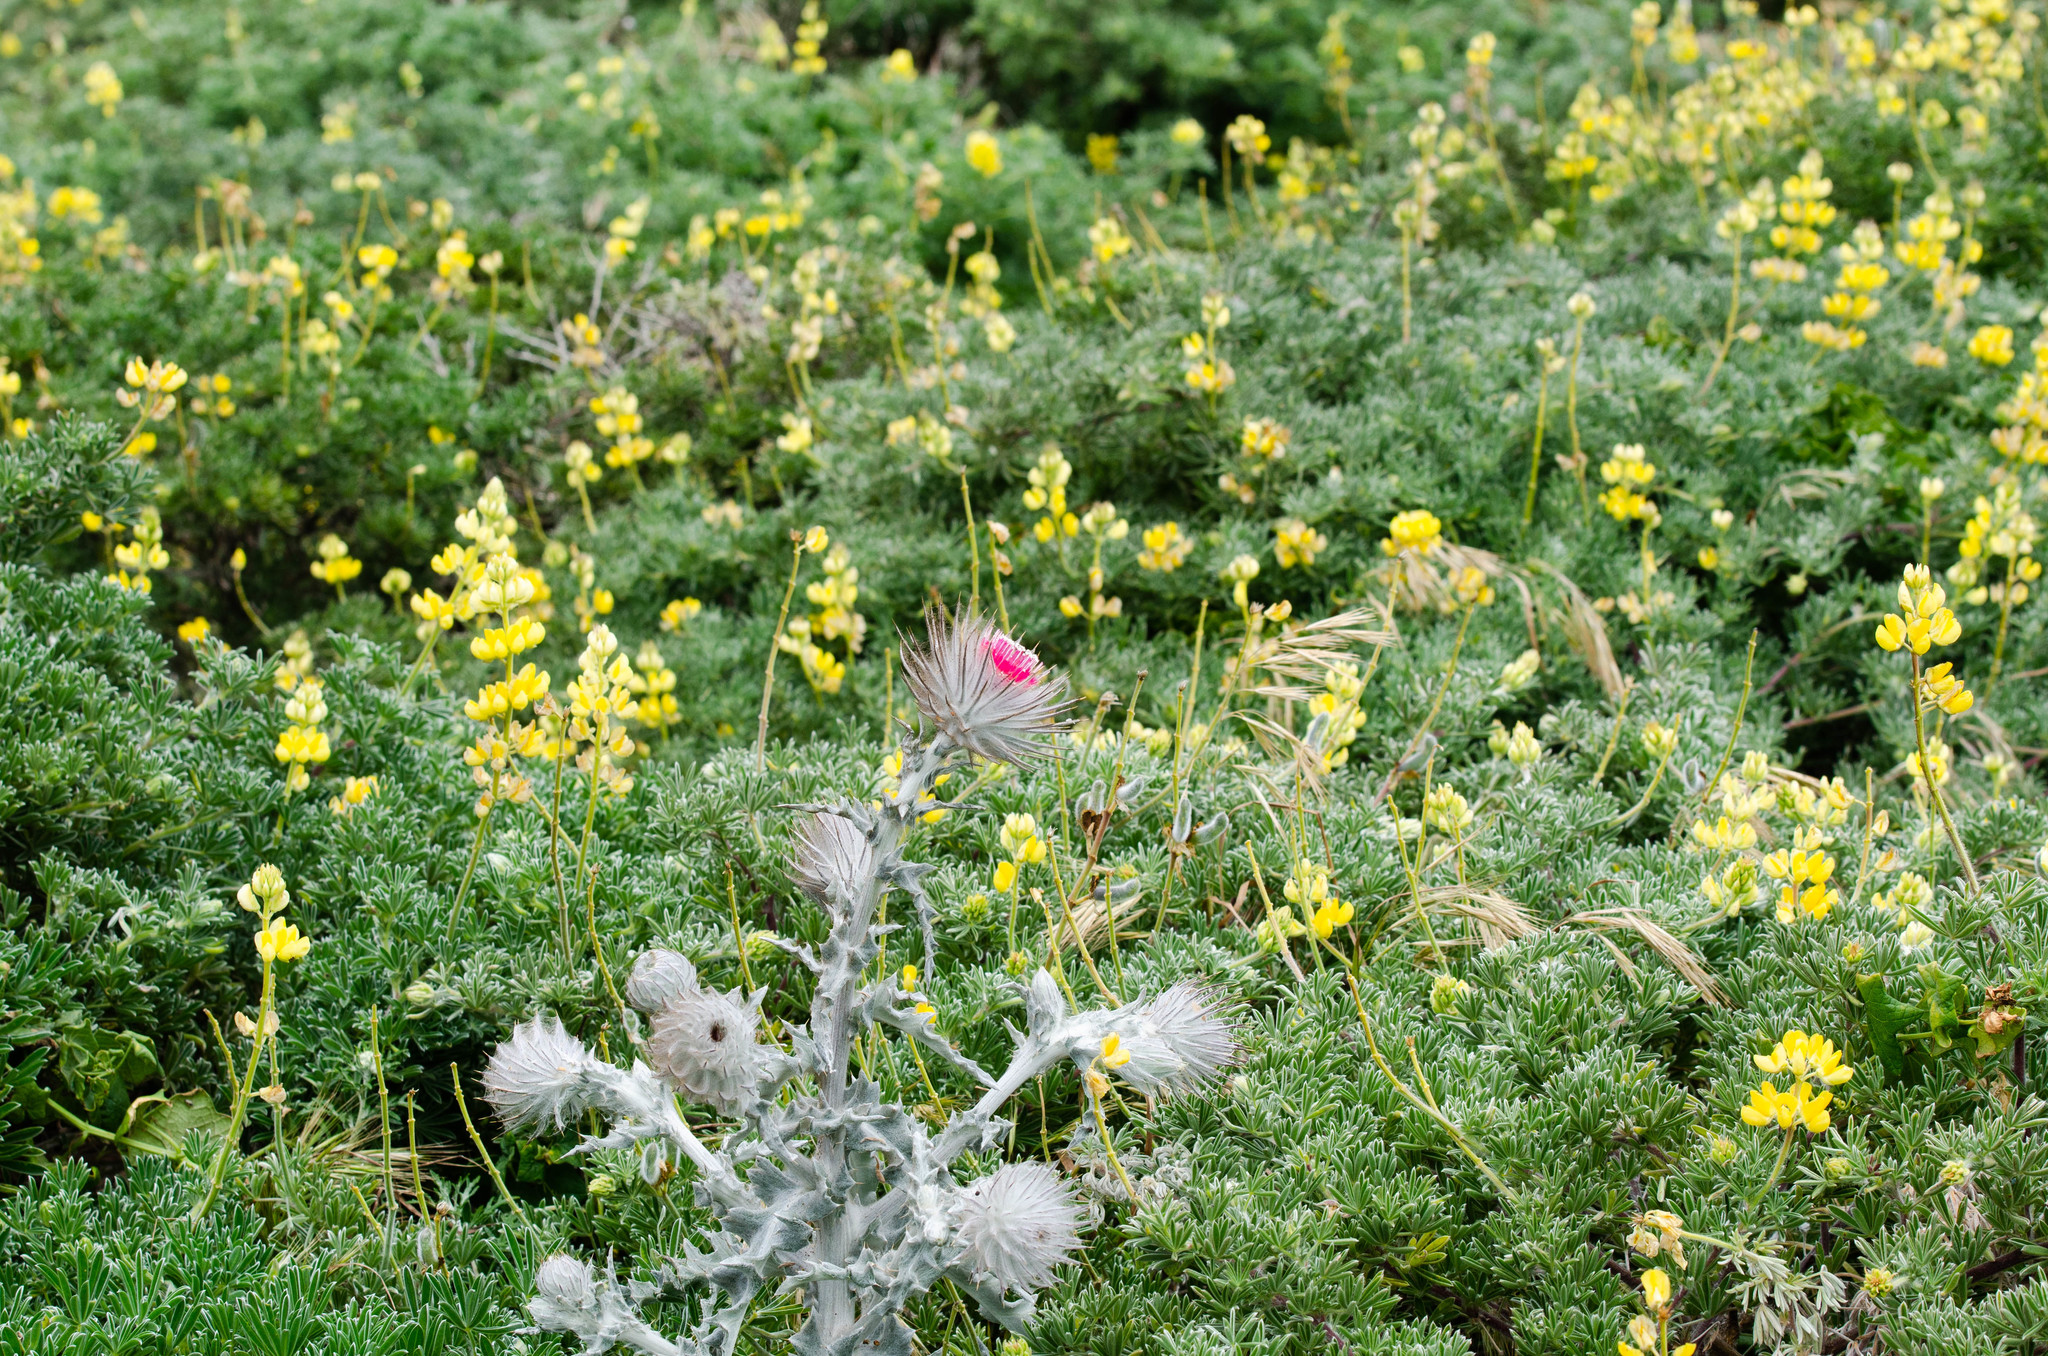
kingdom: Plantae
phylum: Tracheophyta
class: Magnoliopsida
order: Asterales
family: Asteraceae
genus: Cirsium
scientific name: Cirsium occidentale
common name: Western thistle
